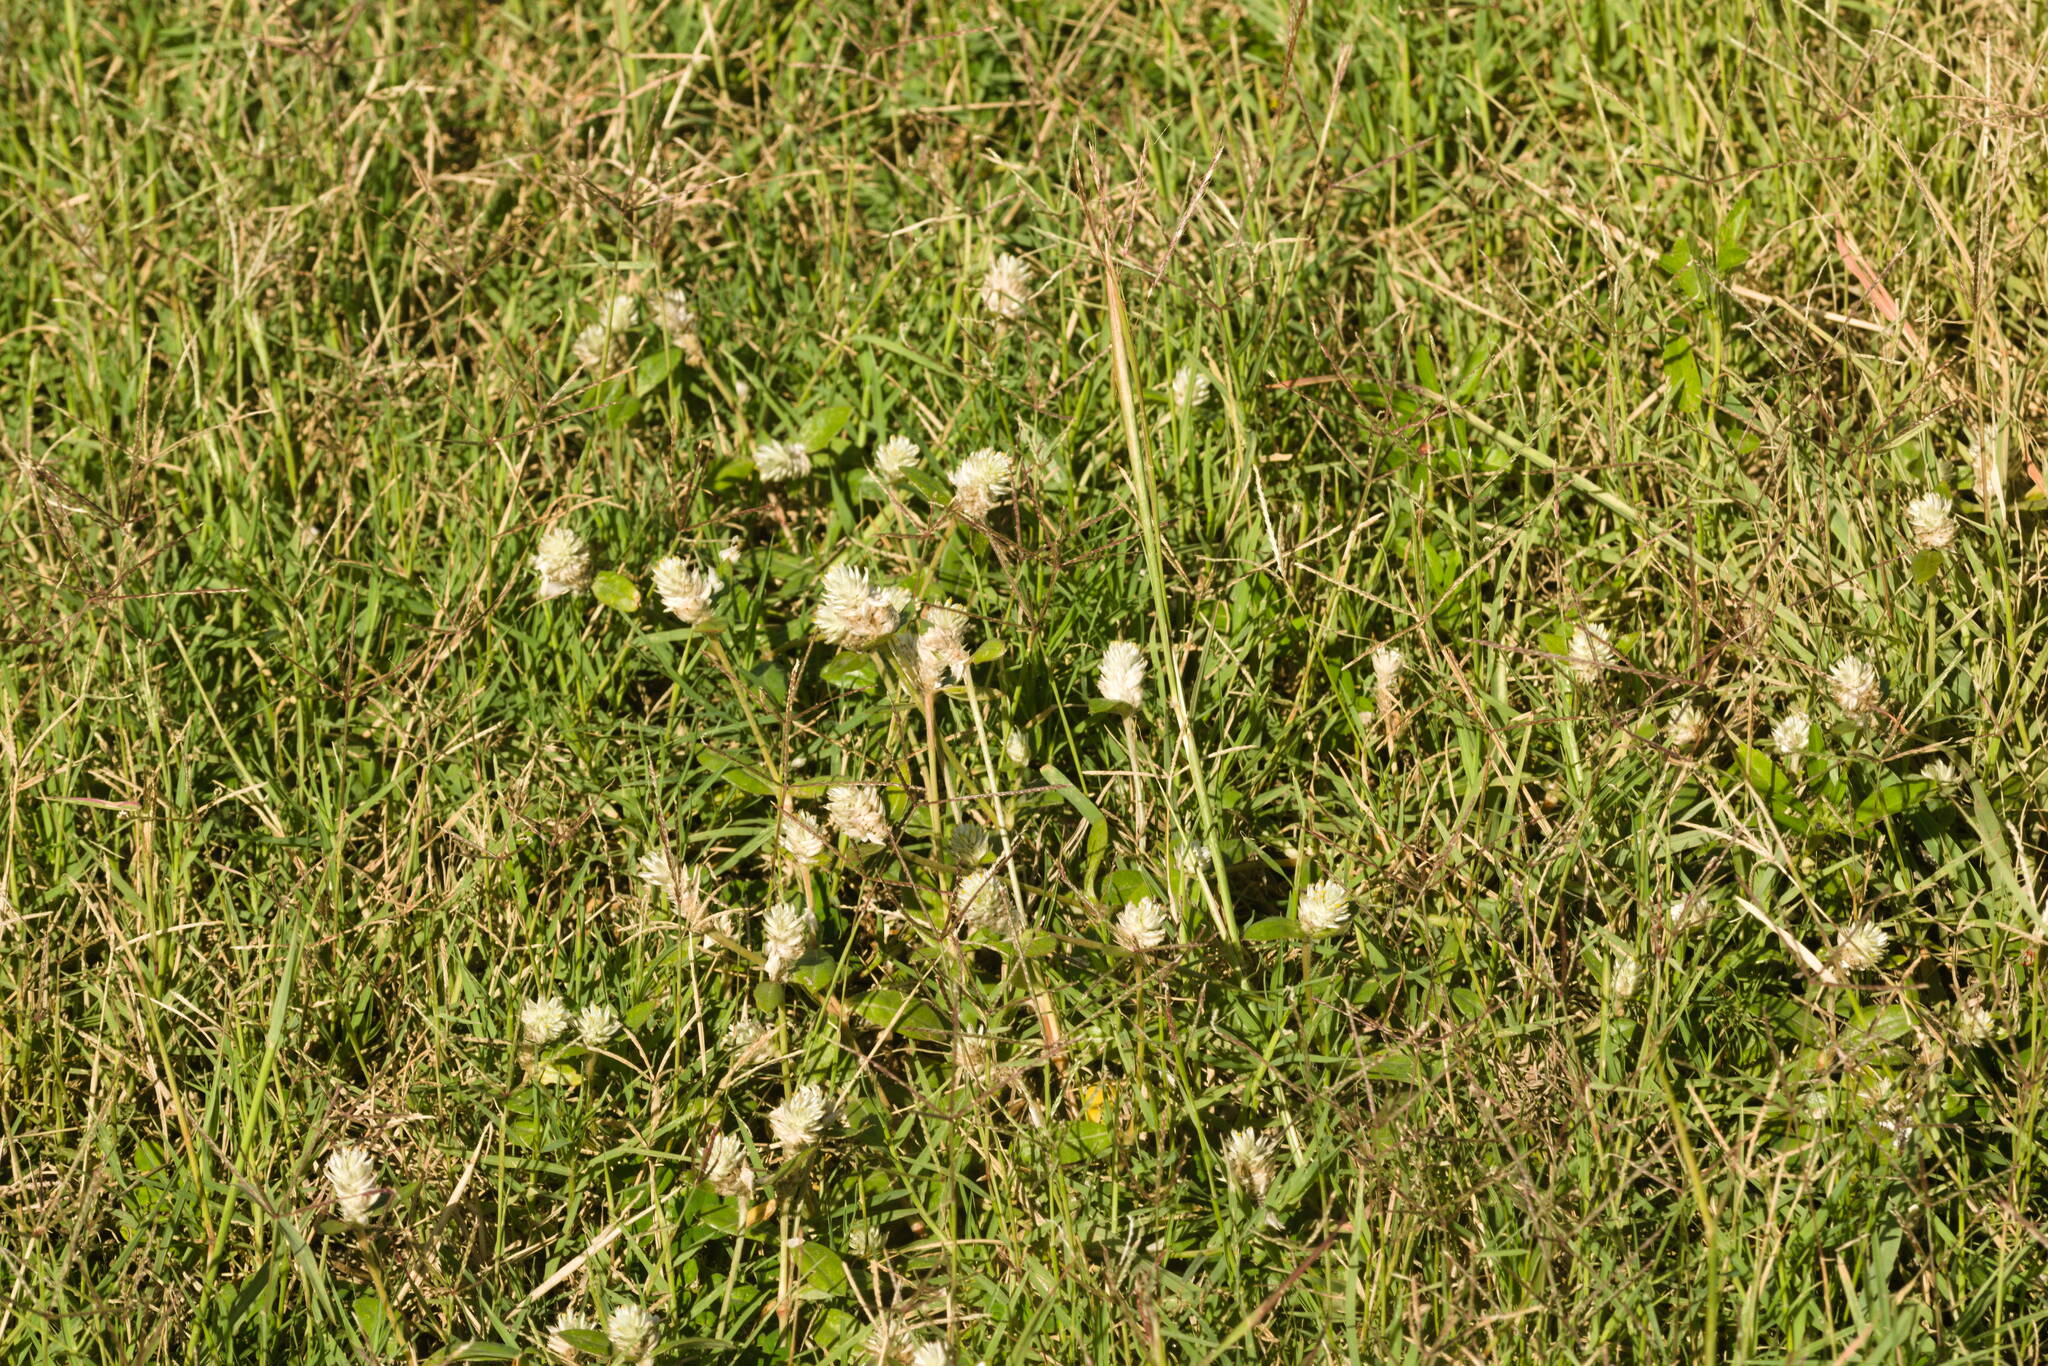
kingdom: Plantae
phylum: Tracheophyta
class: Magnoliopsida
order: Caryophyllales
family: Amaranthaceae
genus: Gomphrena
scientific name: Gomphrena celosioides
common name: Gomphrena-weed
